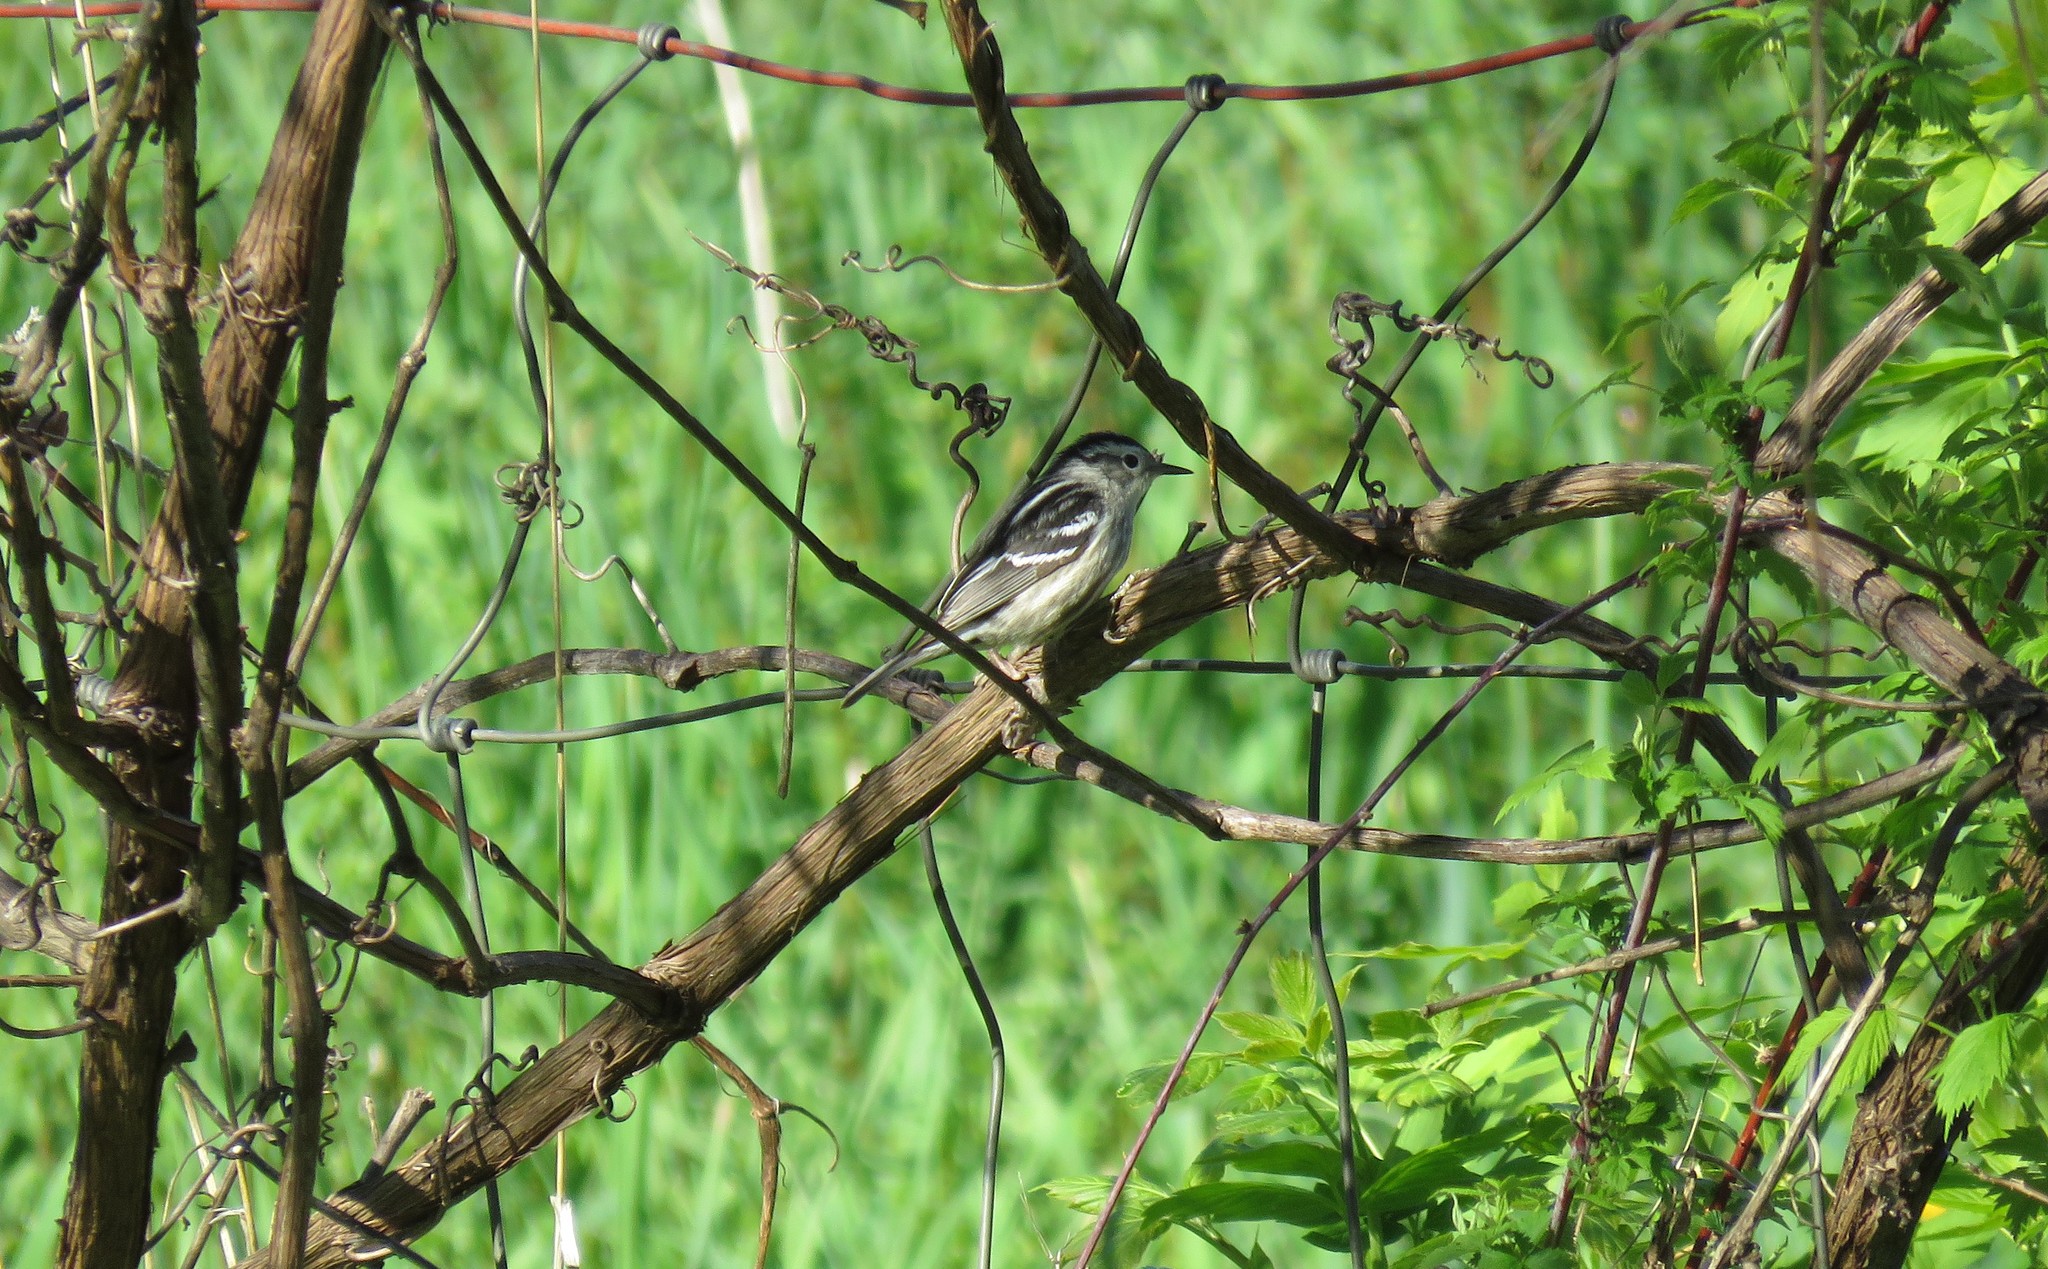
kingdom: Animalia
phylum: Chordata
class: Aves
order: Passeriformes
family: Parulidae
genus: Mniotilta
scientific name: Mniotilta varia
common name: Black-and-white warbler
